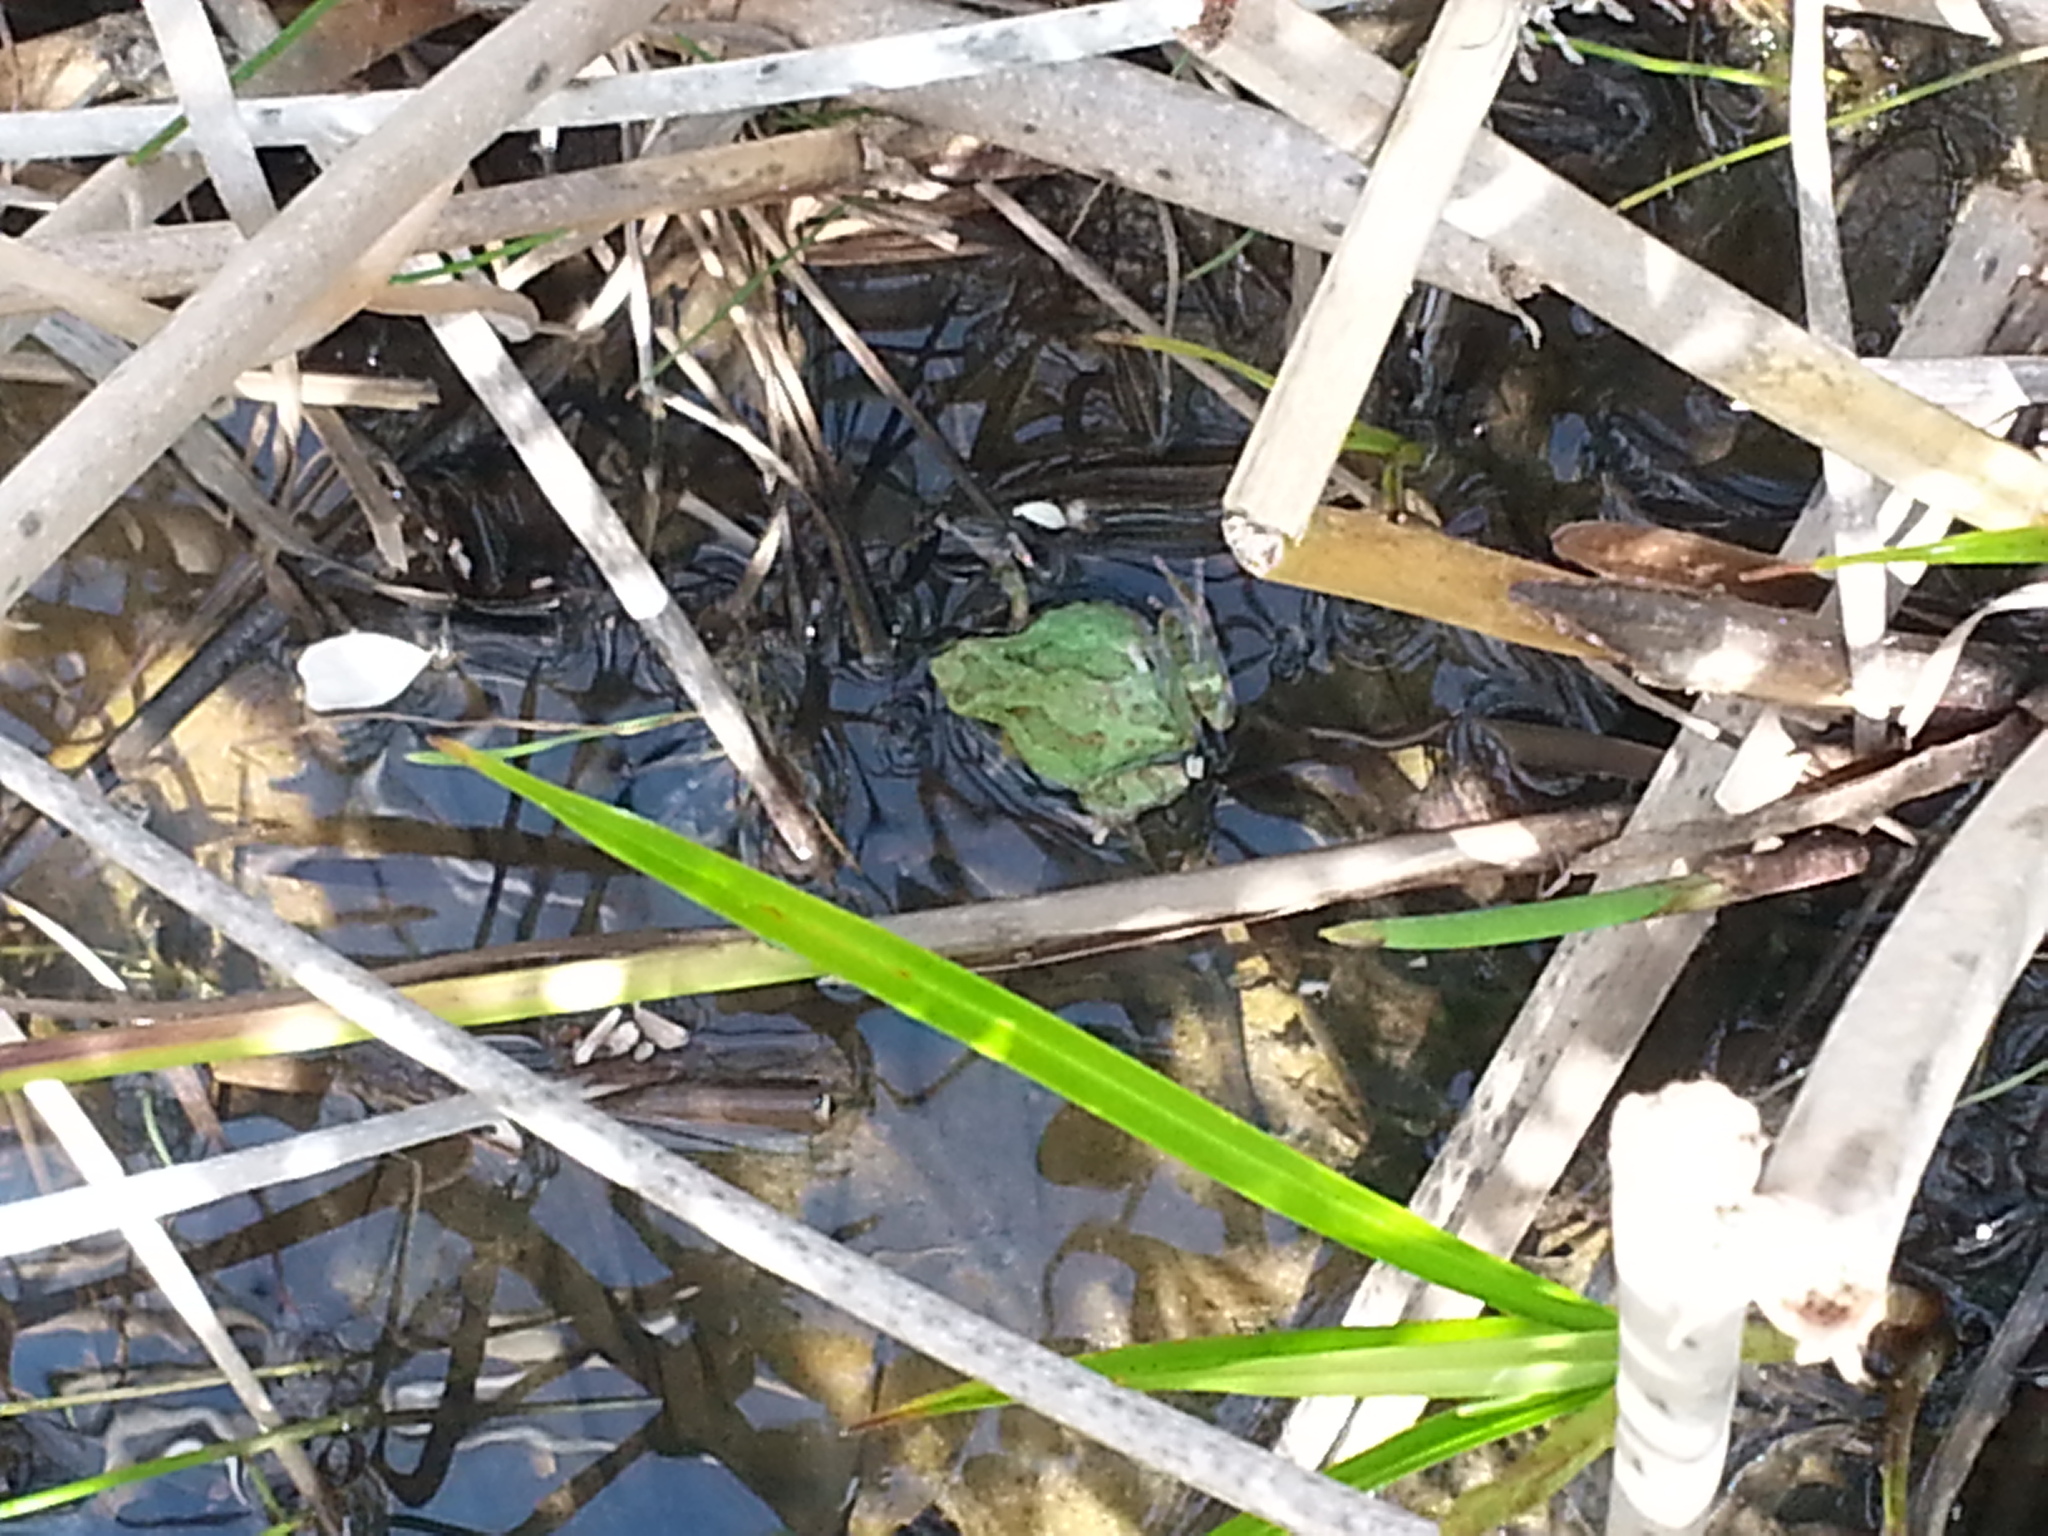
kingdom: Animalia
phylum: Chordata
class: Amphibia
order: Anura
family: Hylidae
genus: Pseudacris
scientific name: Pseudacris regilla
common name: Pacific chorus frog
